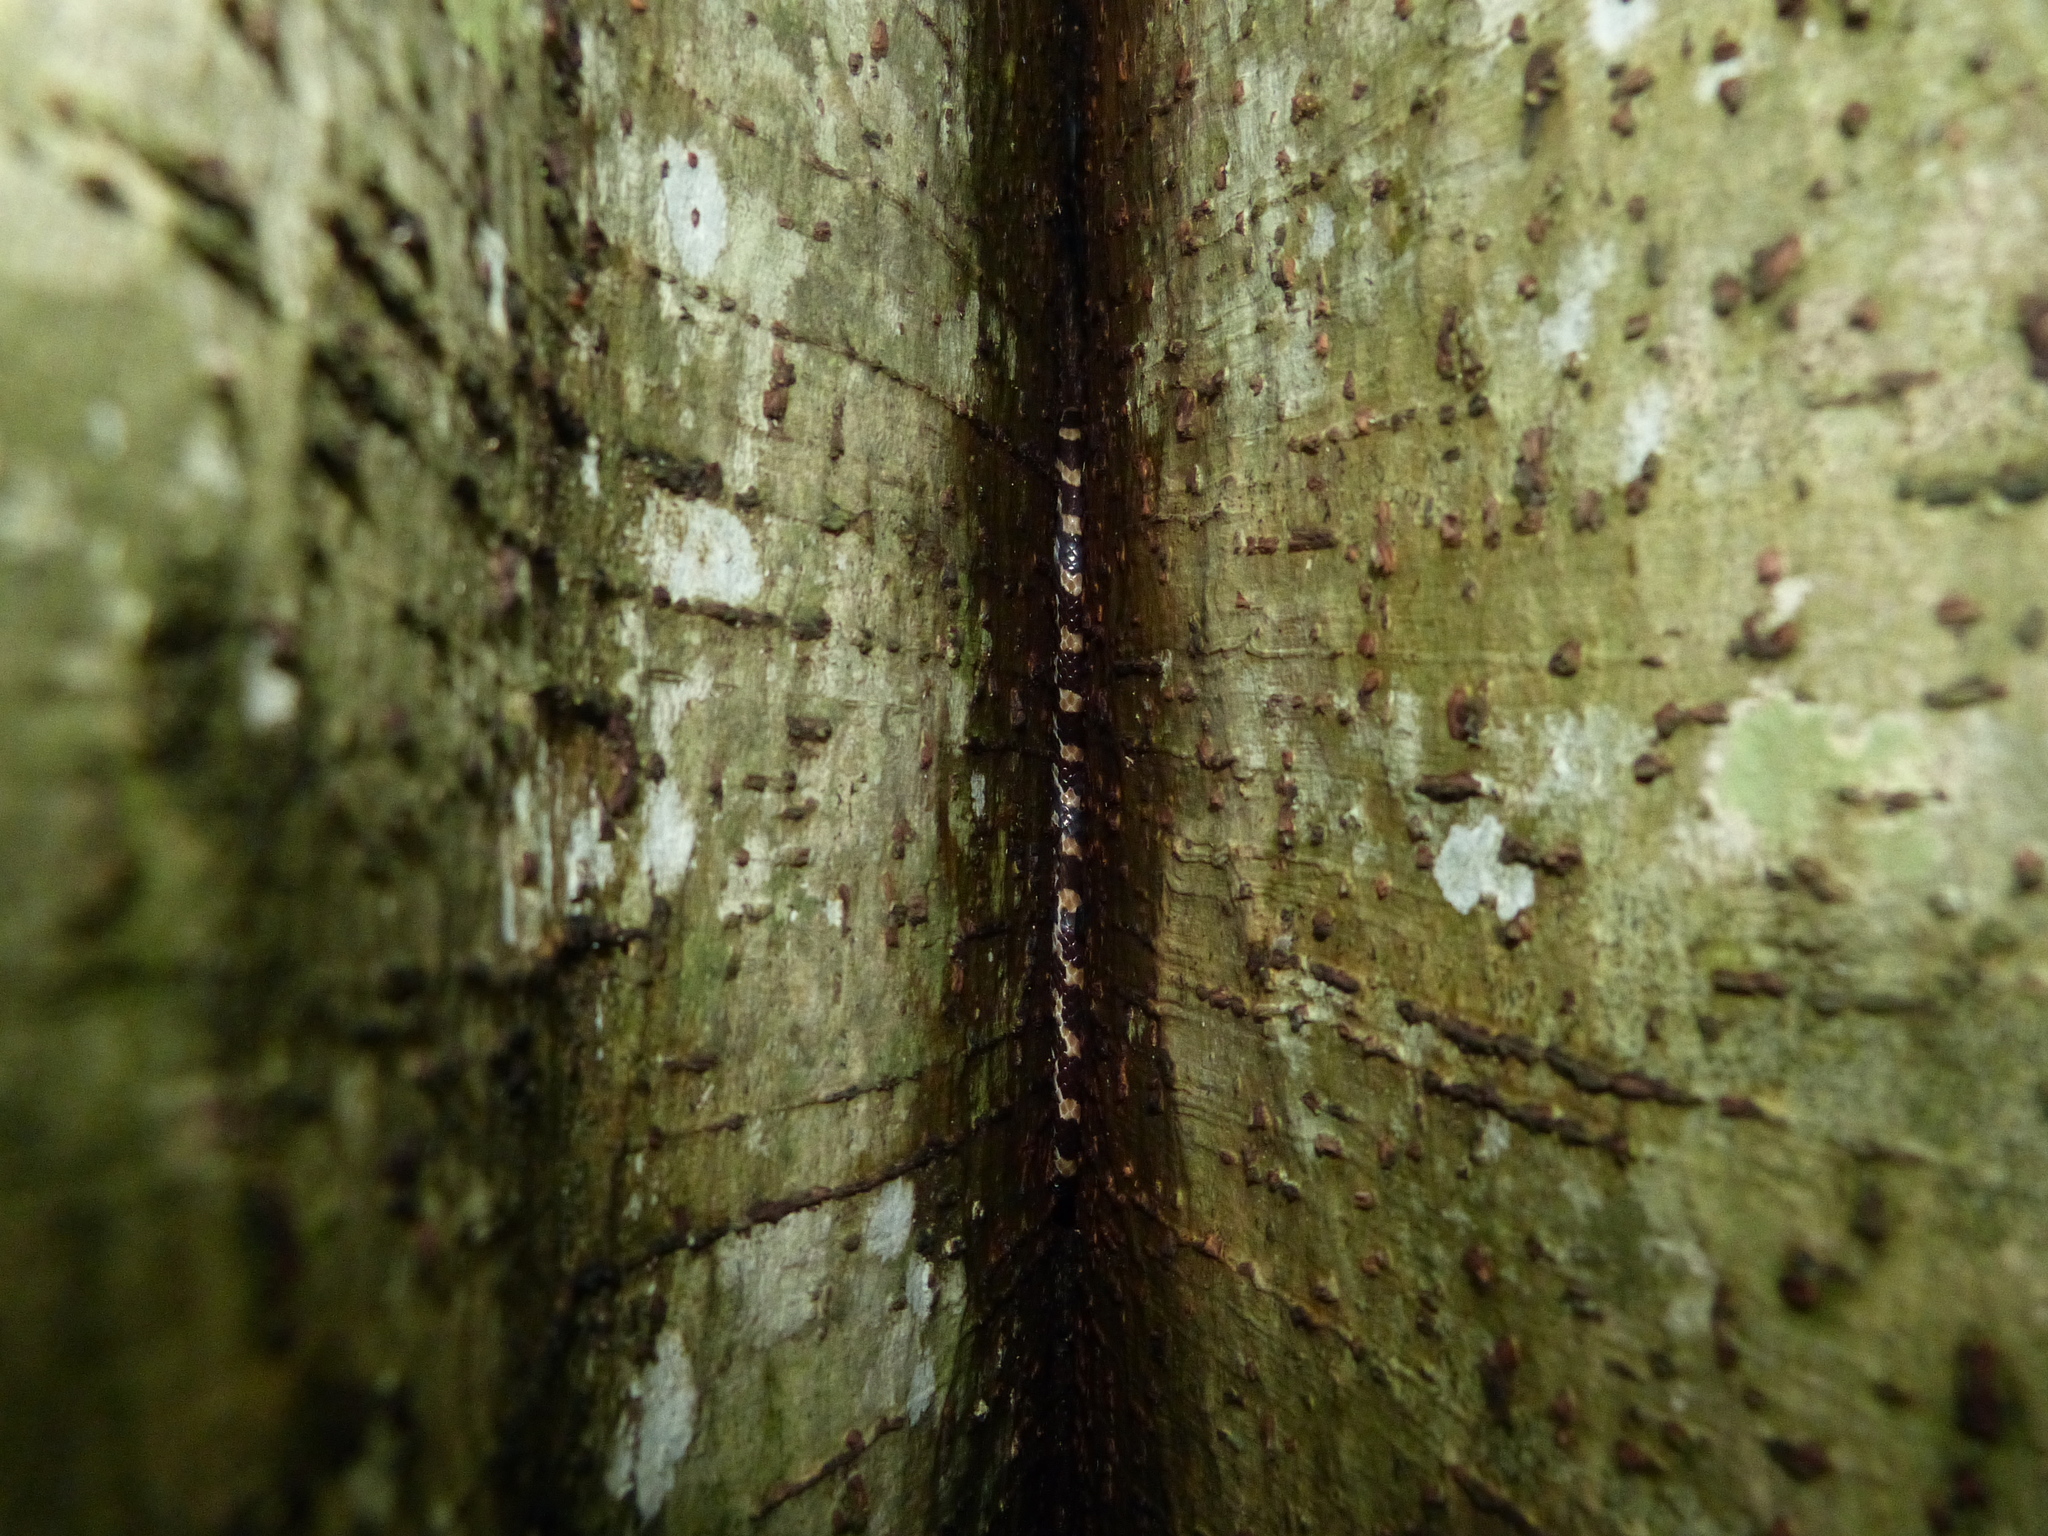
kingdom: Animalia
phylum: Chordata
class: Squamata
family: Pseudoxyrhophiidae
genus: Lycodryas
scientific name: Lycodryas pseudogranuliceps
